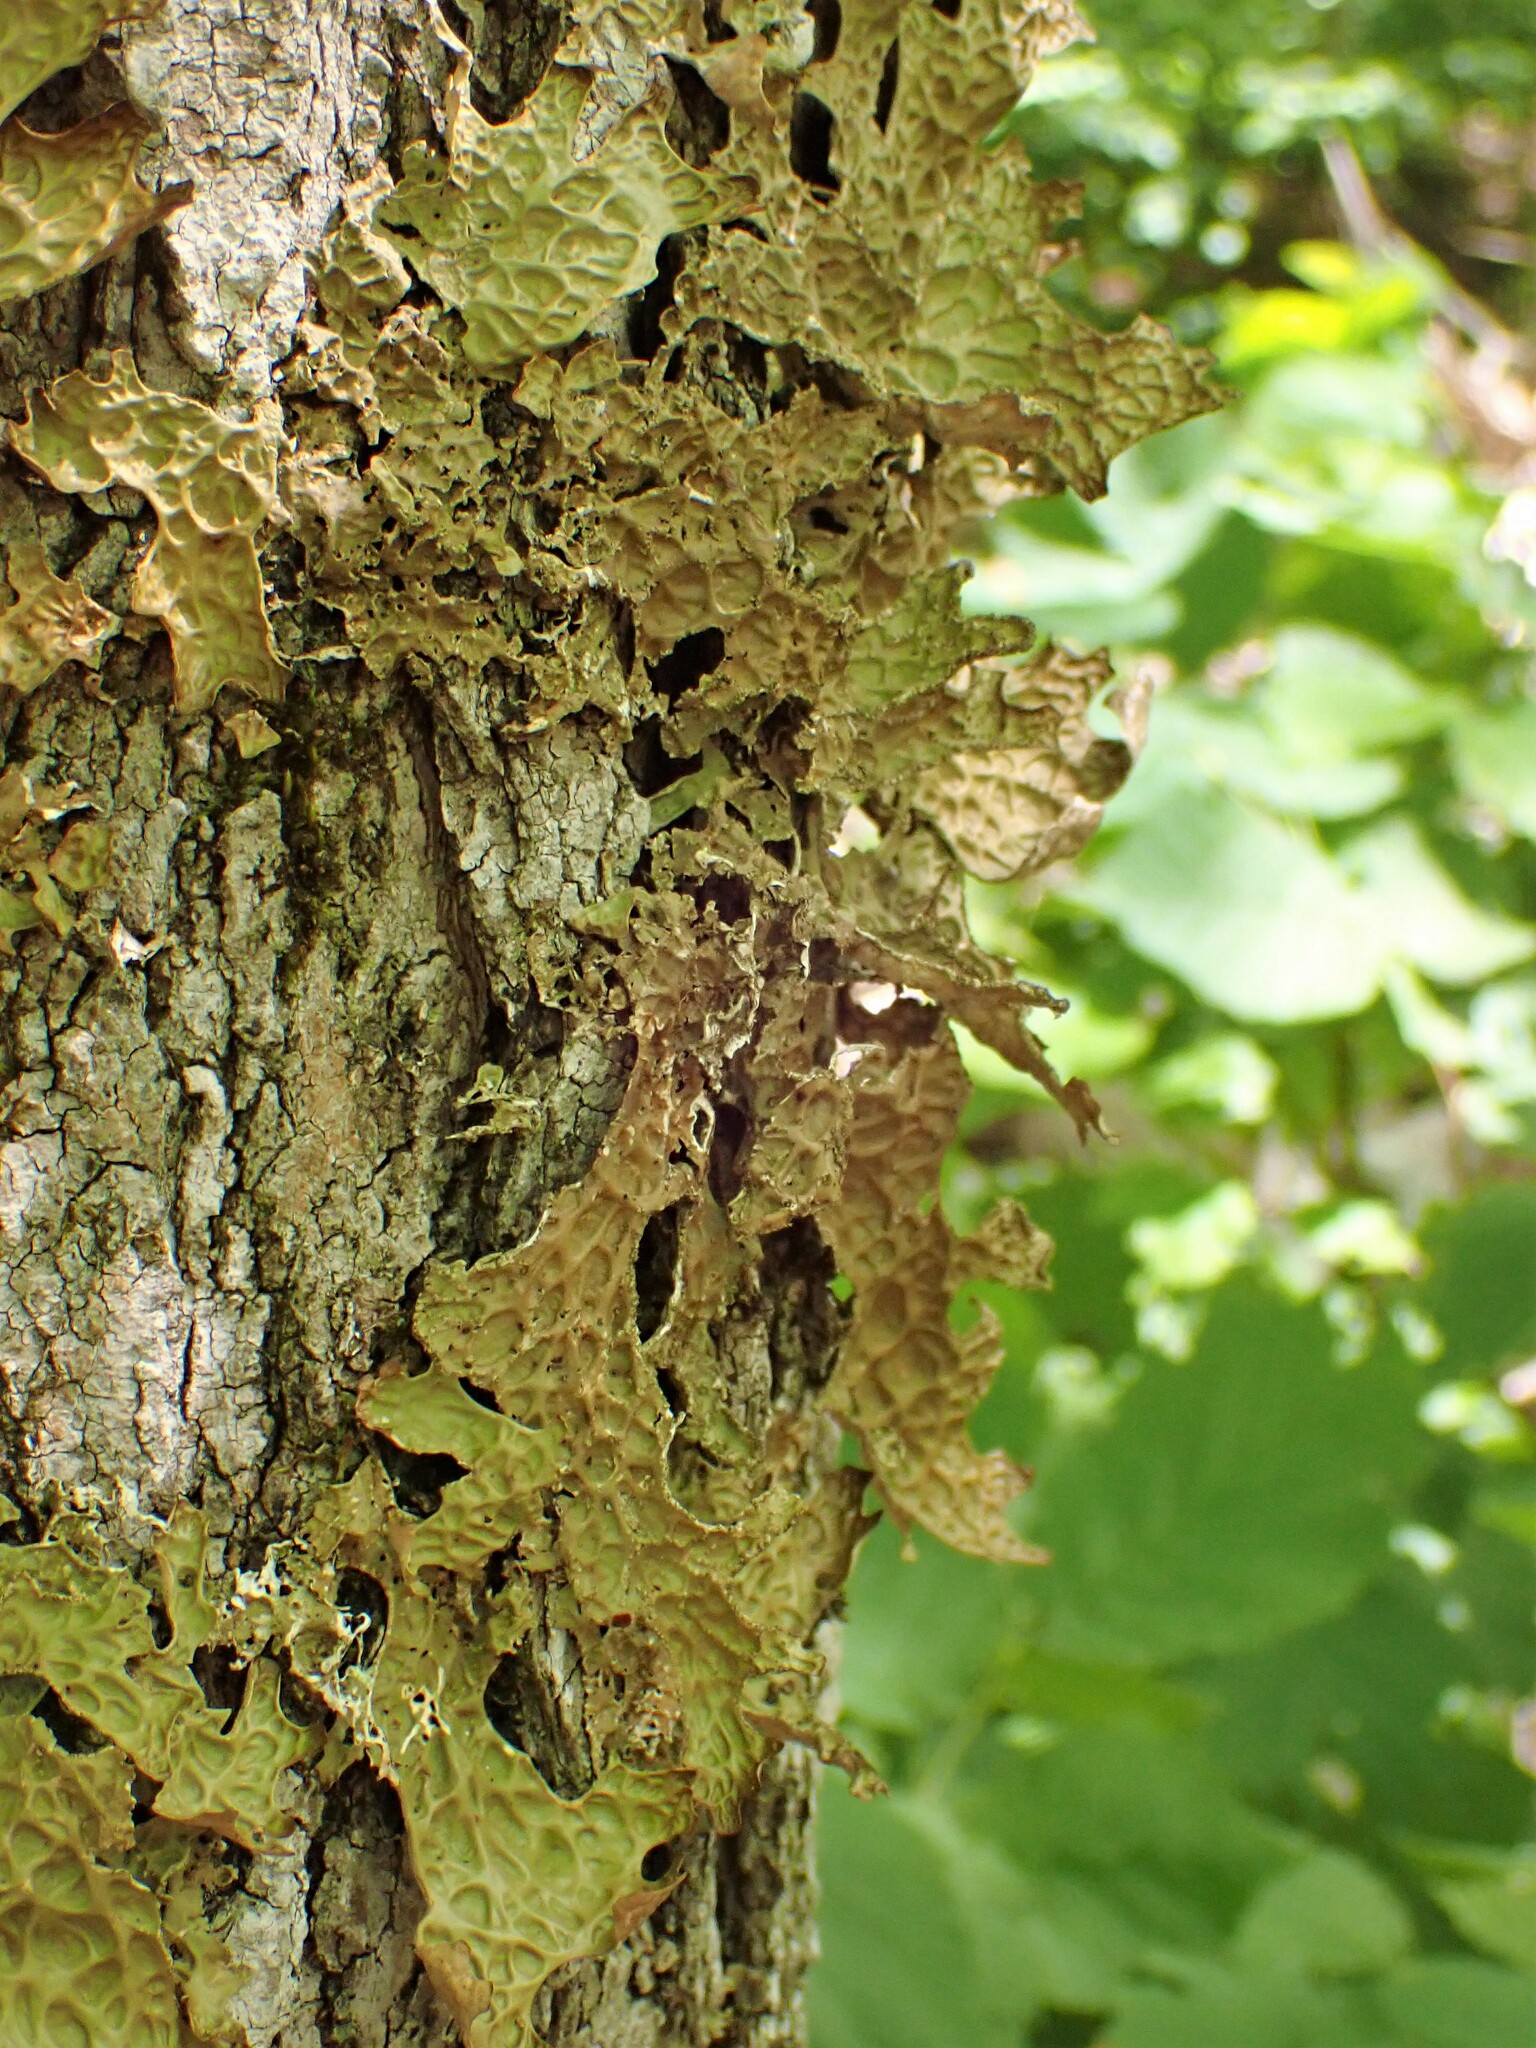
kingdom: Fungi
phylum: Ascomycota
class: Lecanoromycetes
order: Peltigerales
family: Lobariaceae
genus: Lobaria
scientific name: Lobaria pulmonaria
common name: Lungwort
